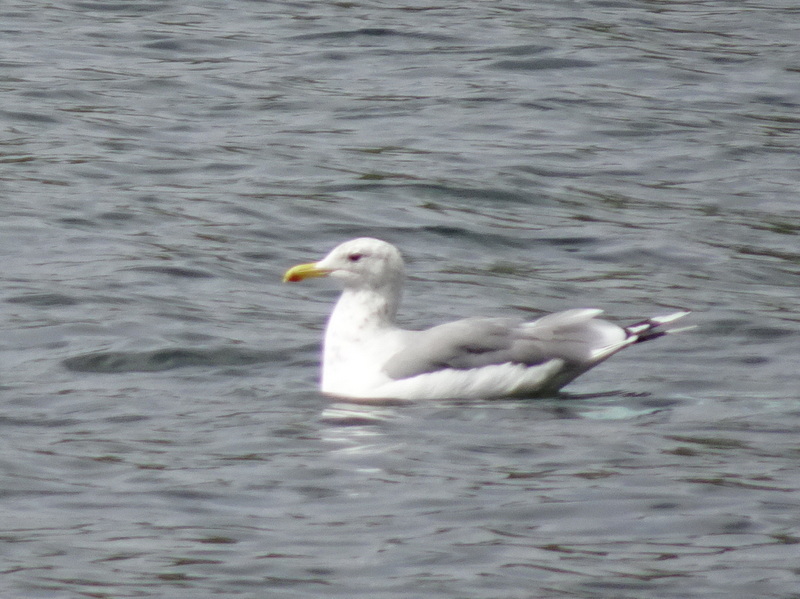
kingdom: Animalia
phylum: Chordata
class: Aves
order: Charadriiformes
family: Laridae
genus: Larus
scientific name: Larus californicus
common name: California gull
